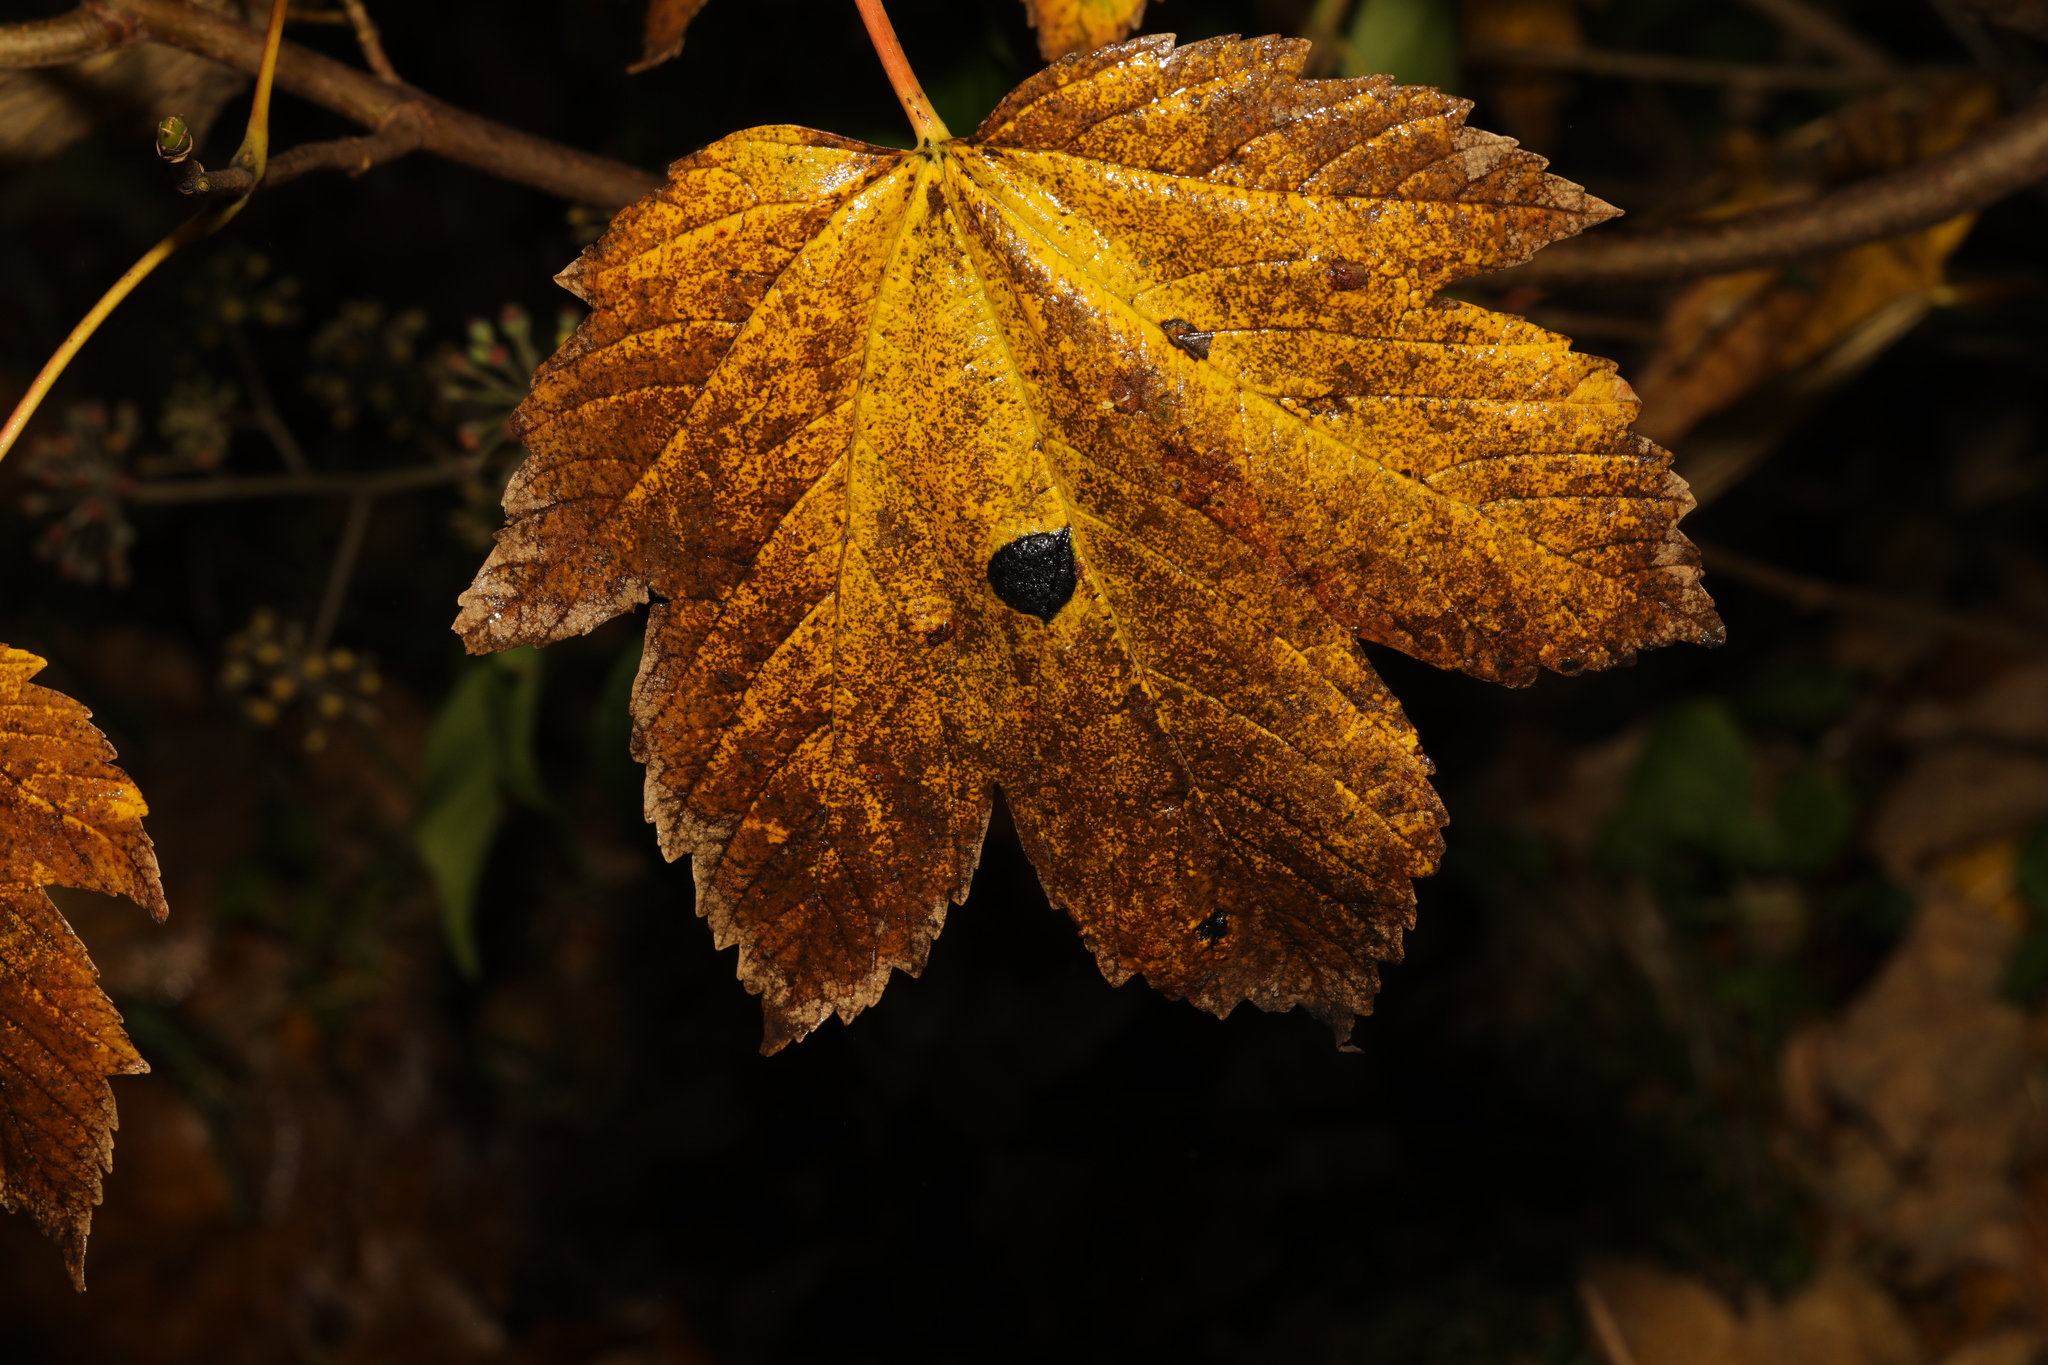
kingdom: Fungi
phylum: Ascomycota
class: Leotiomycetes
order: Rhytismatales
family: Rhytismataceae
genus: Rhytisma
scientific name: Rhytisma acerinum
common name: European tar spot
